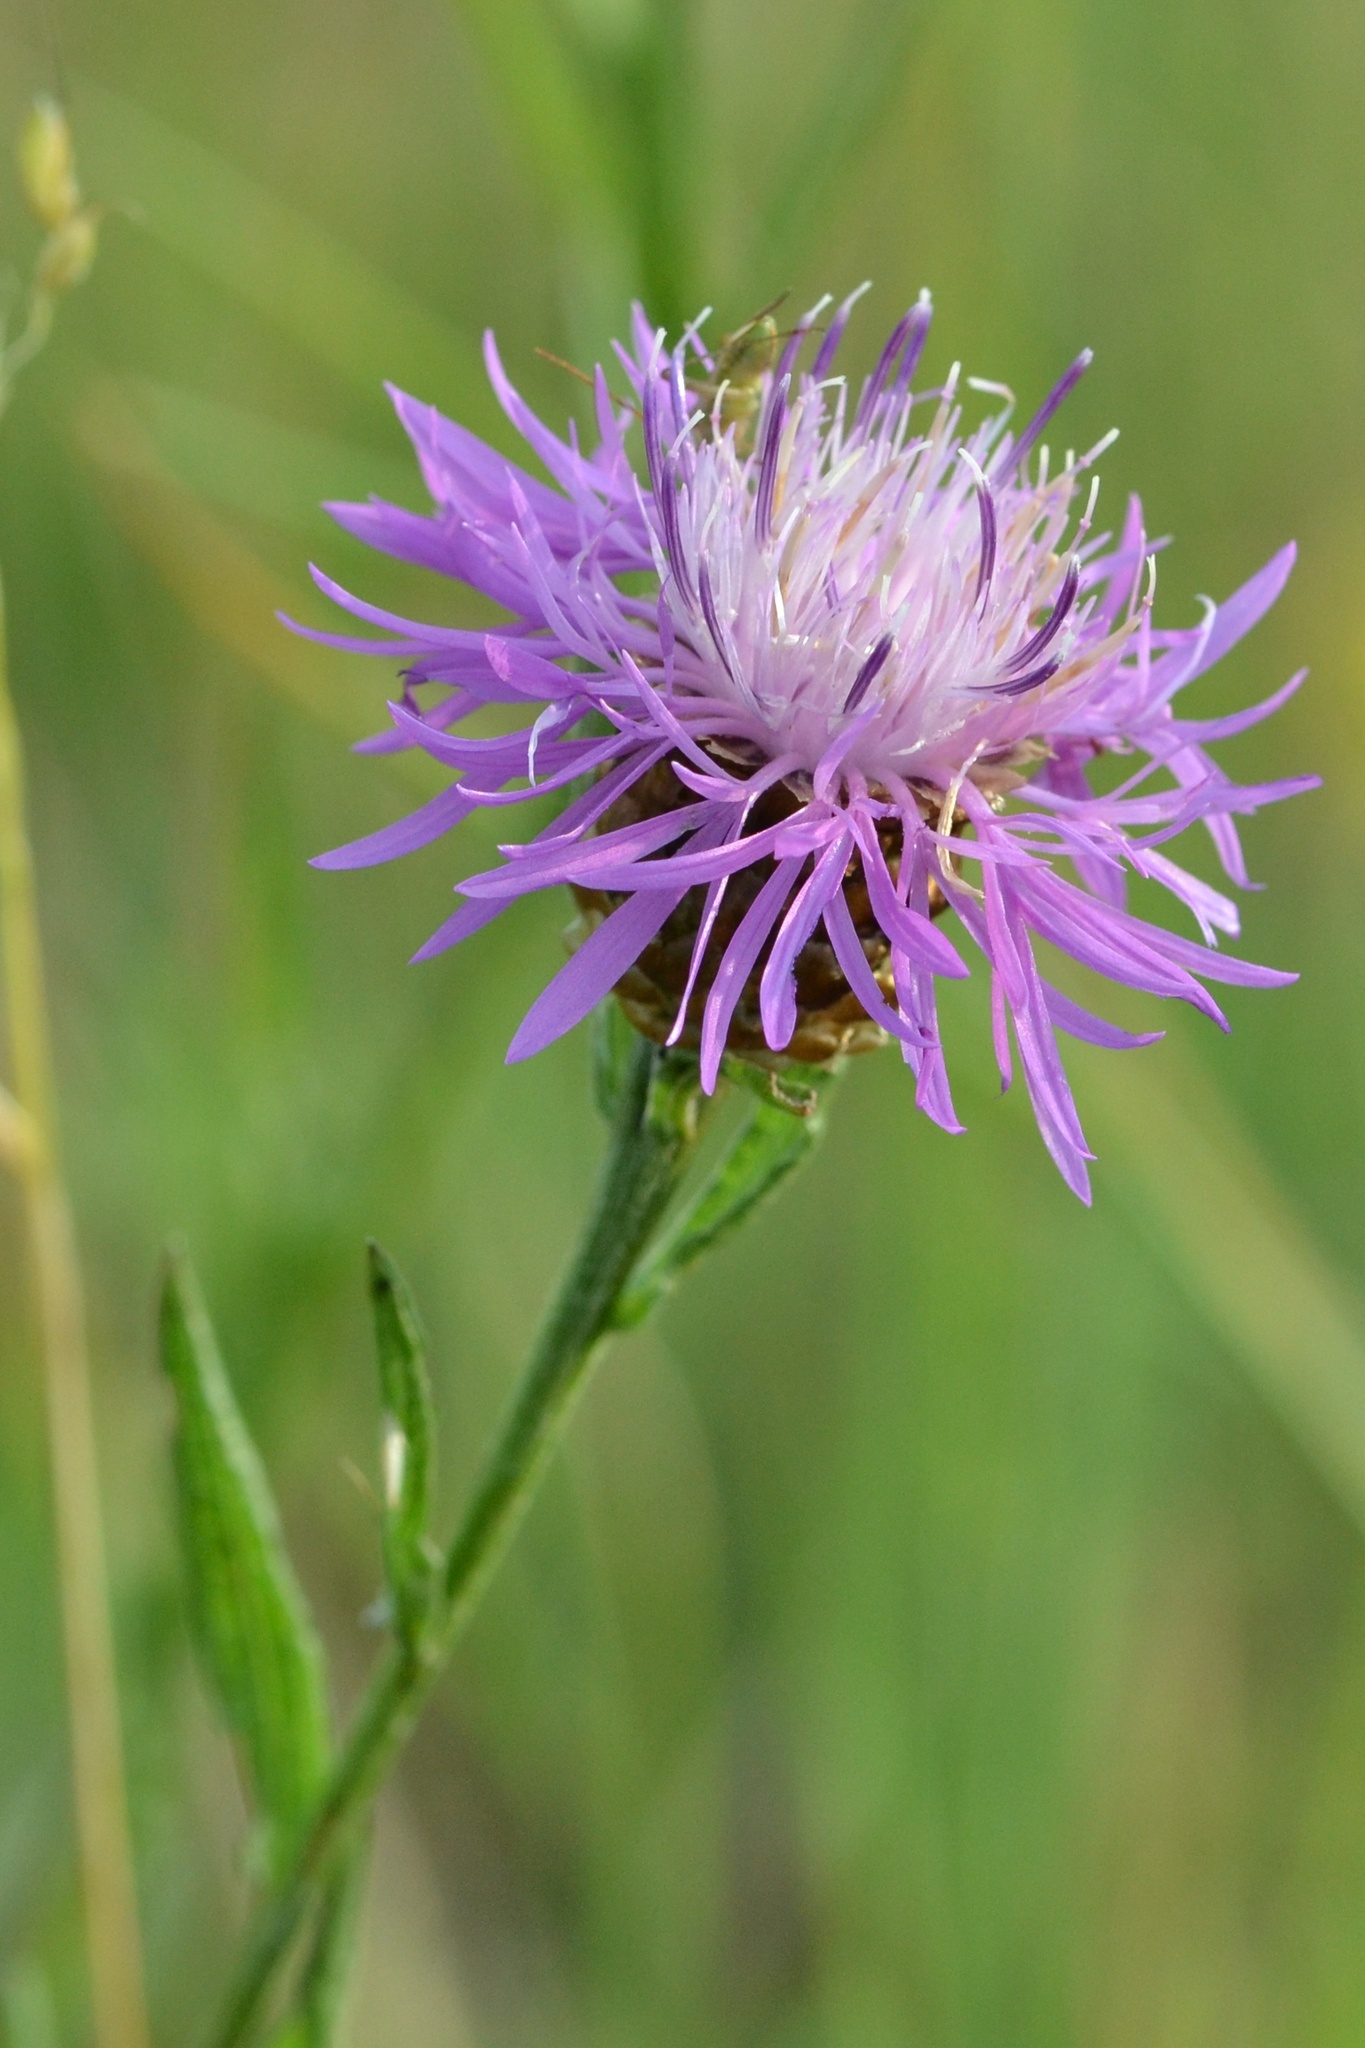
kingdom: Plantae
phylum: Tracheophyta
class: Magnoliopsida
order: Asterales
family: Asteraceae
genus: Centaurea
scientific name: Centaurea jacea
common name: Brown knapweed
